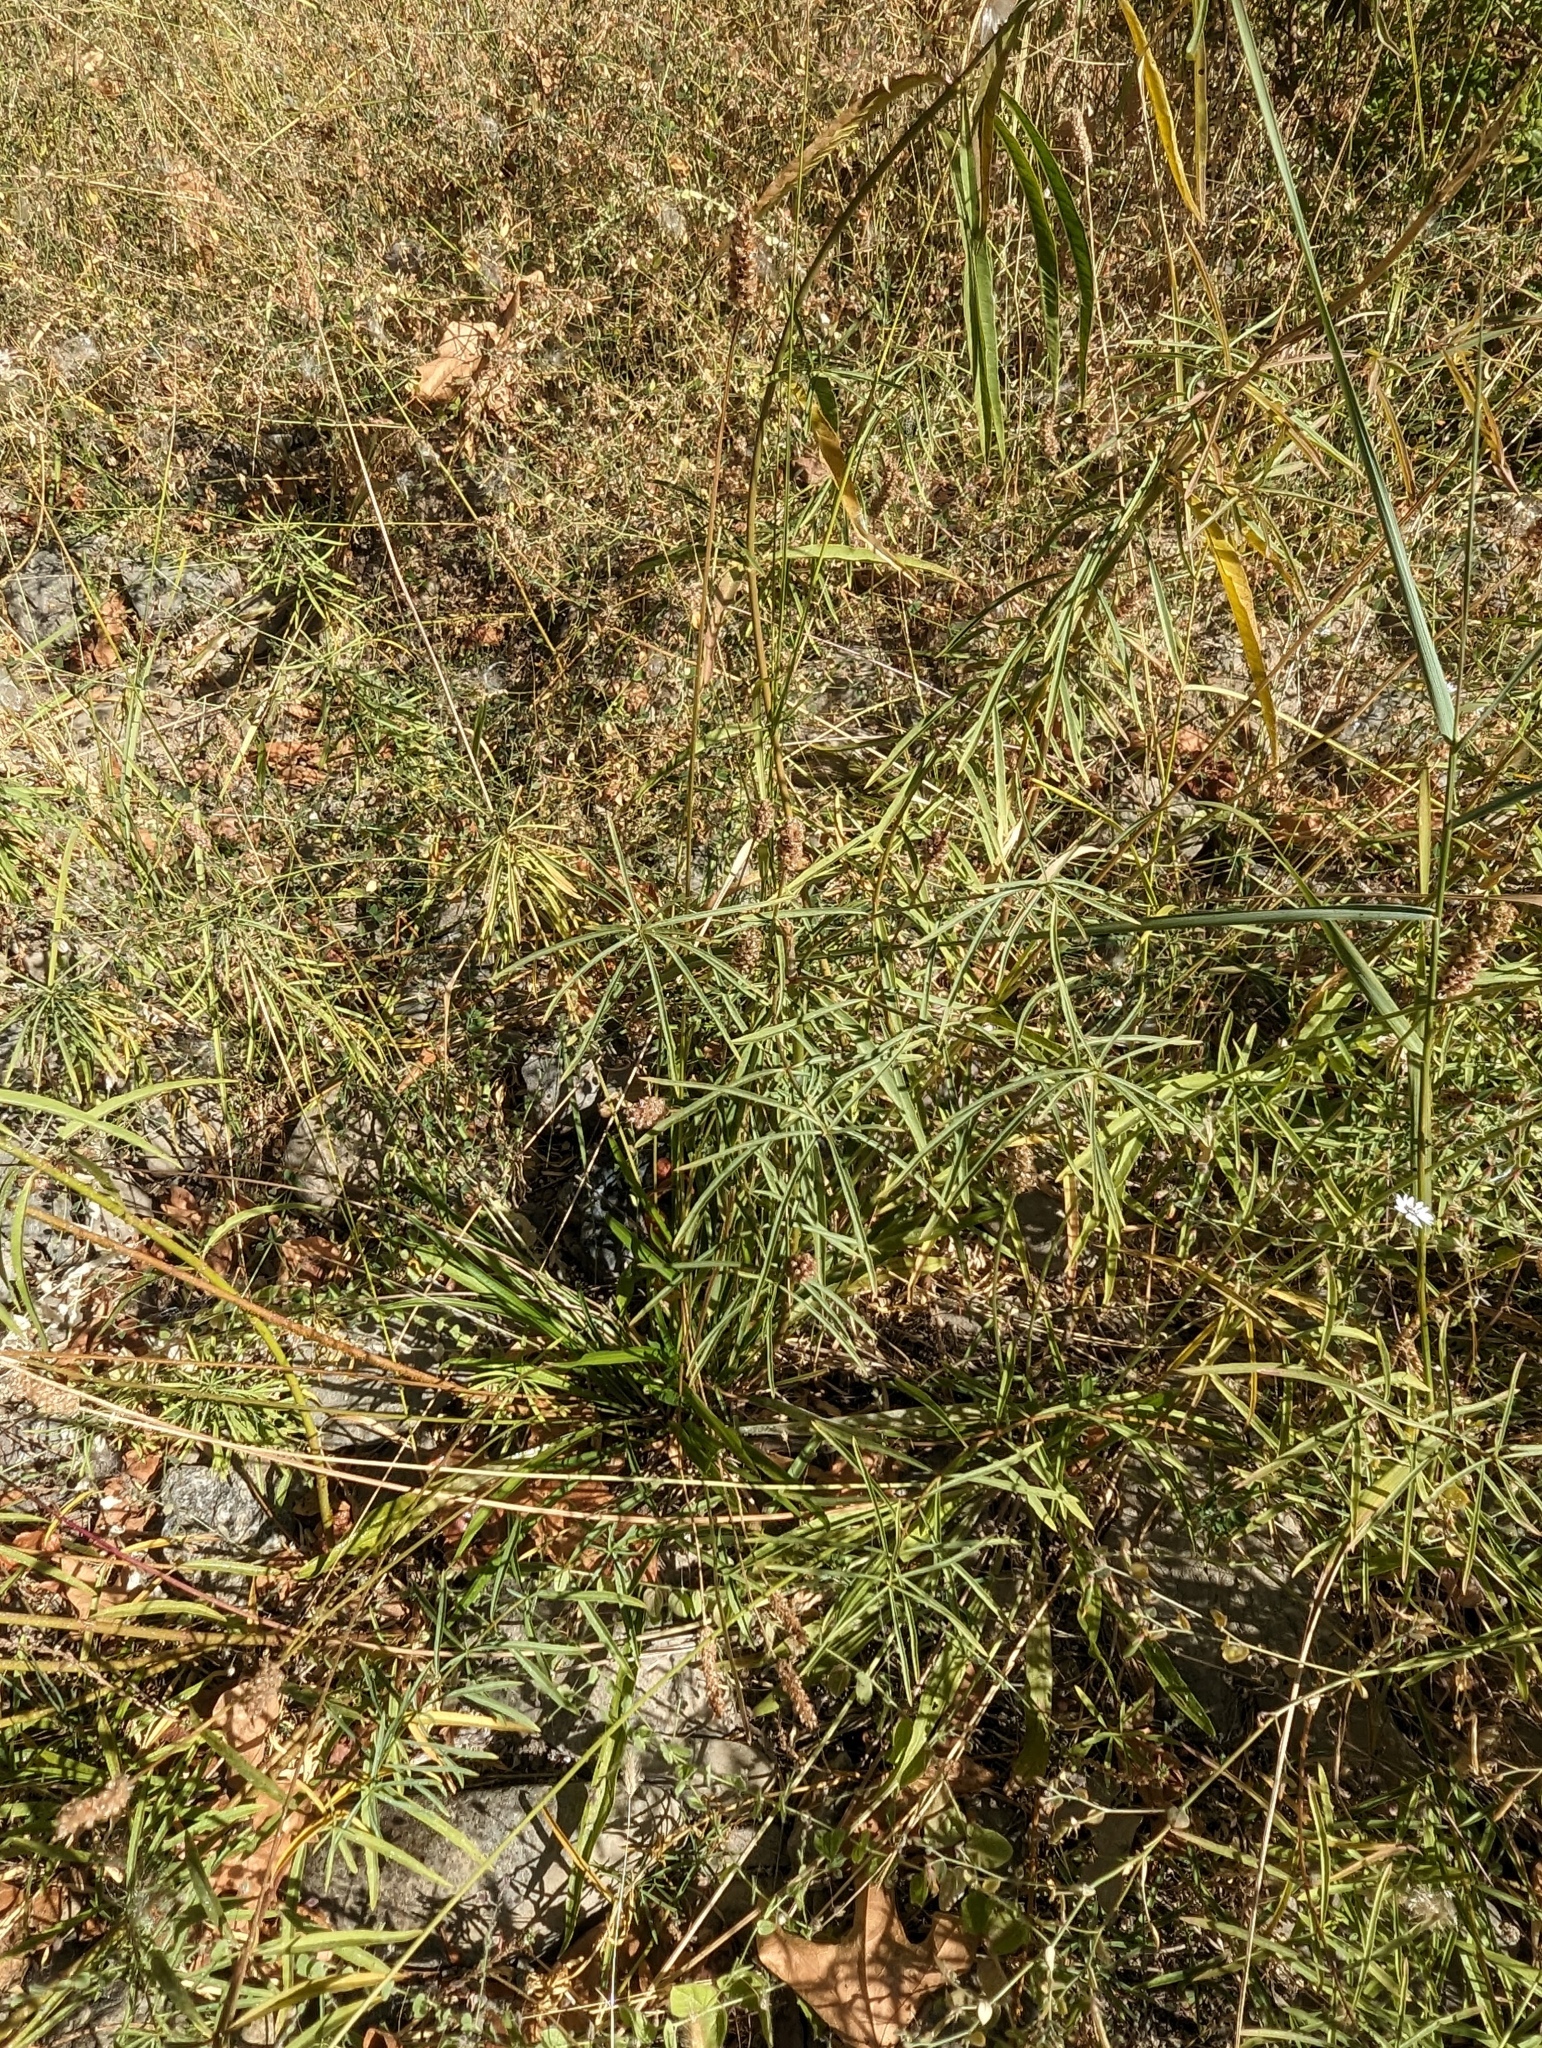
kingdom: Plantae
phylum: Tracheophyta
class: Magnoliopsida
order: Gentianales
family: Apocynaceae
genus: Asclepias
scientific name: Asclepias fascicularis
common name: Mexican milkweed
